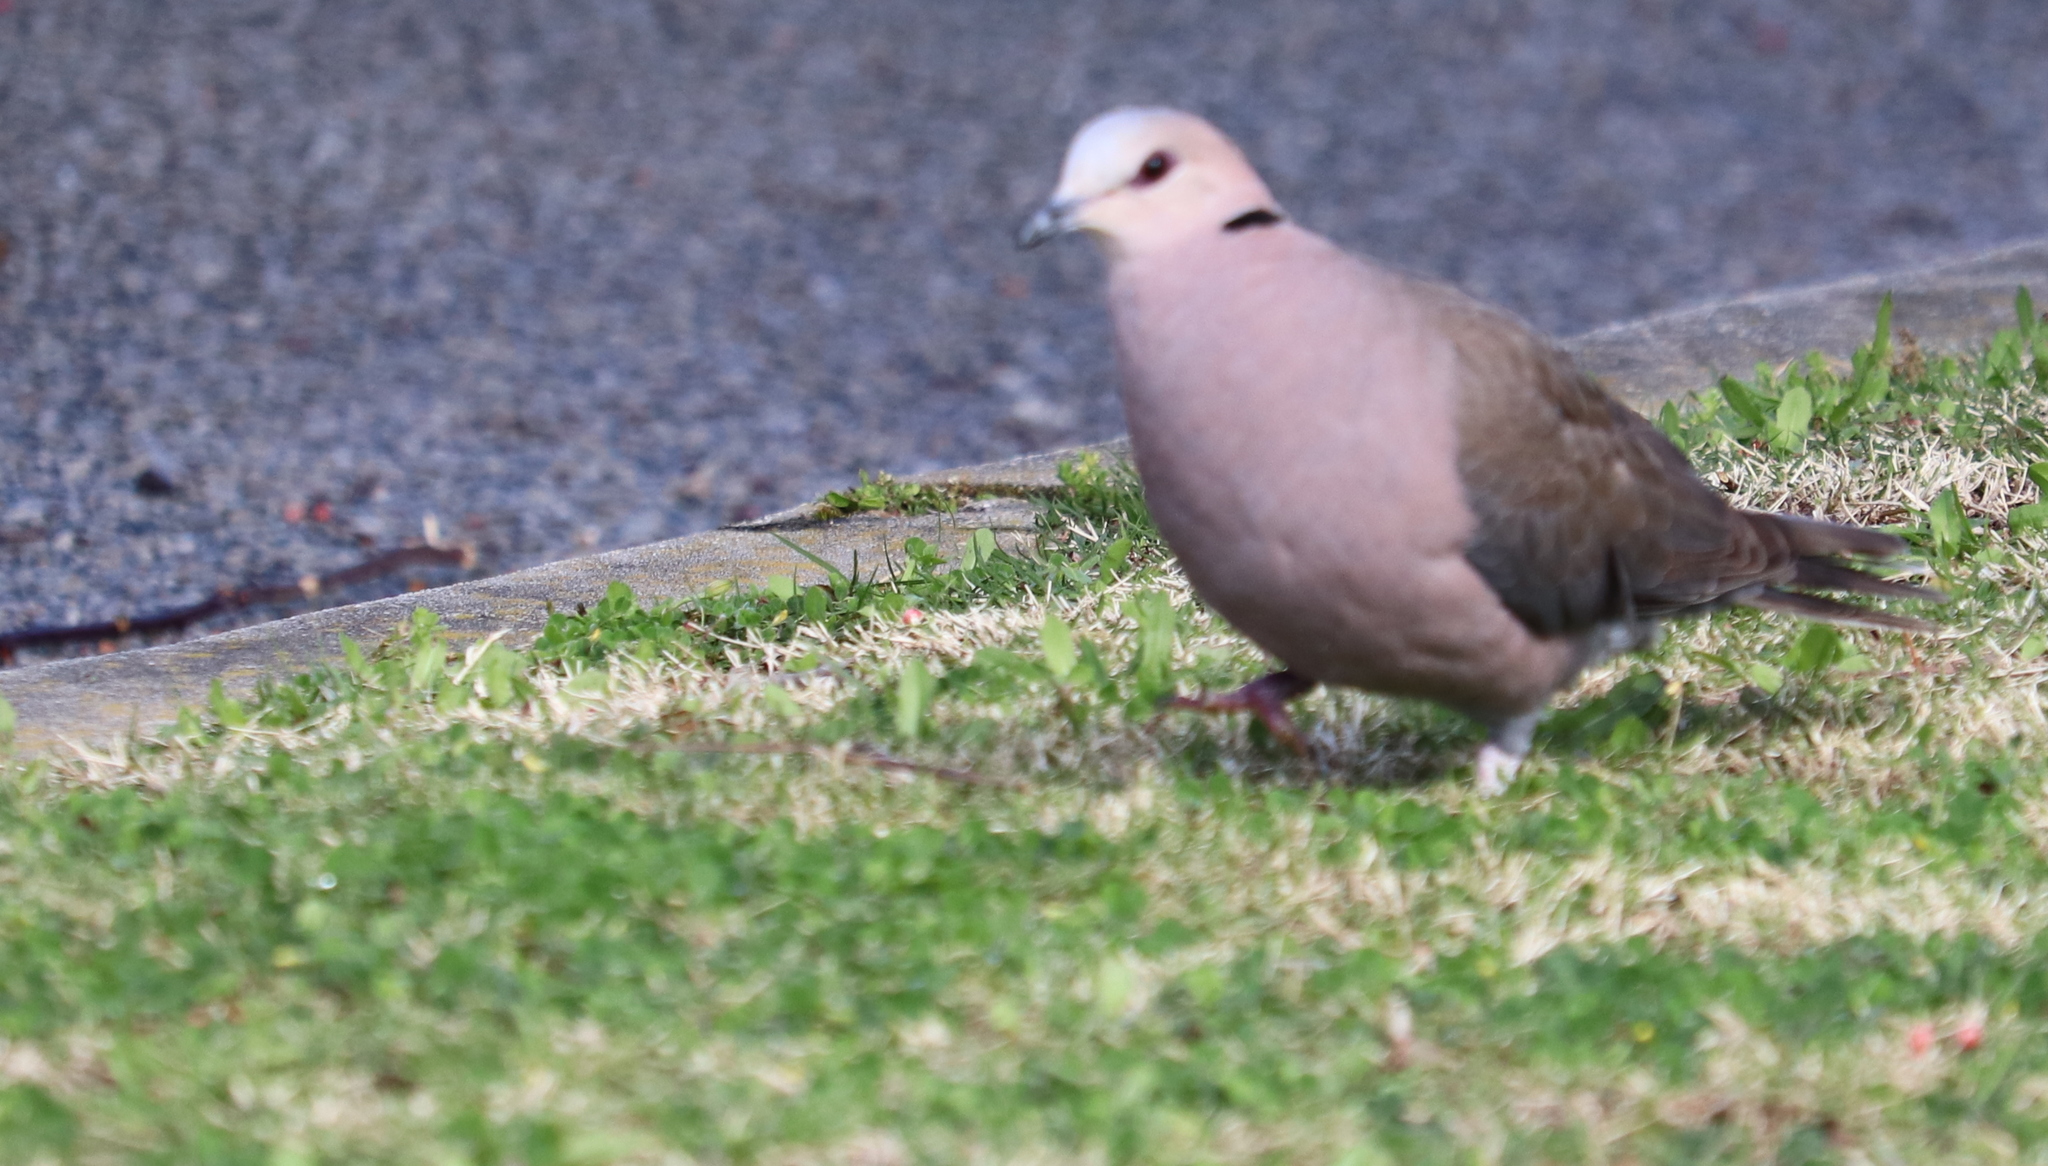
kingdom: Animalia
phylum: Chordata
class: Aves
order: Columbiformes
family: Columbidae
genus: Streptopelia
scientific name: Streptopelia semitorquata
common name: Red-eyed dove
